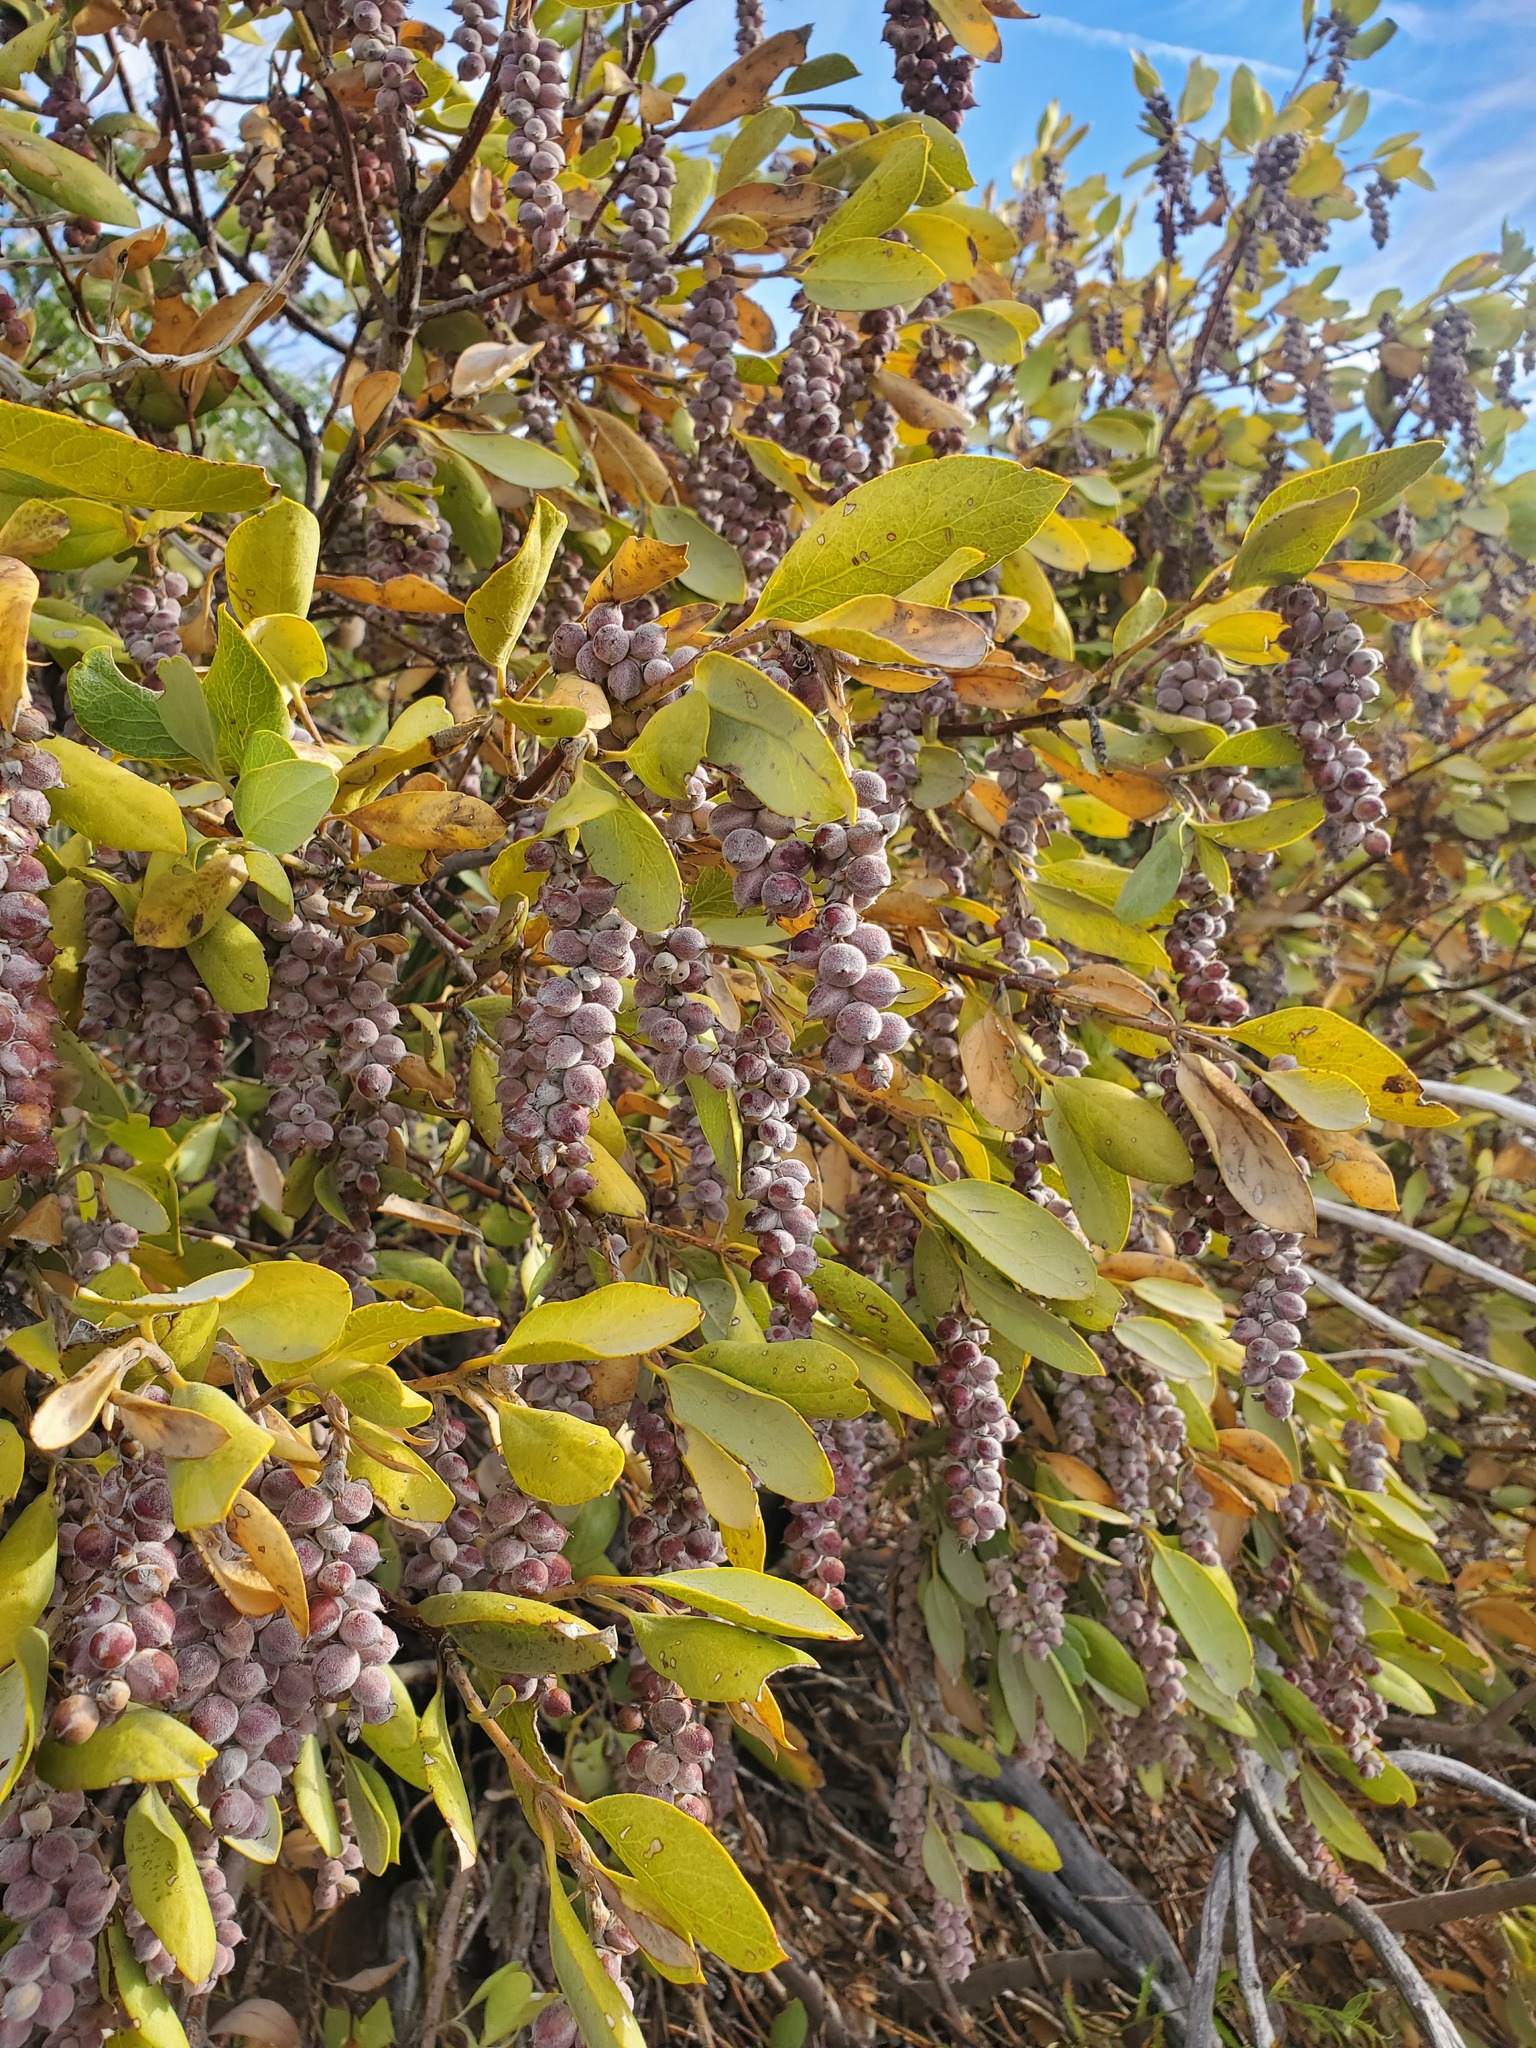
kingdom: Plantae
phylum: Tracheophyta
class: Magnoliopsida
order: Garryales
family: Garryaceae
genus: Garrya
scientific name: Garrya flavescens
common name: Ashy silk-tassel
